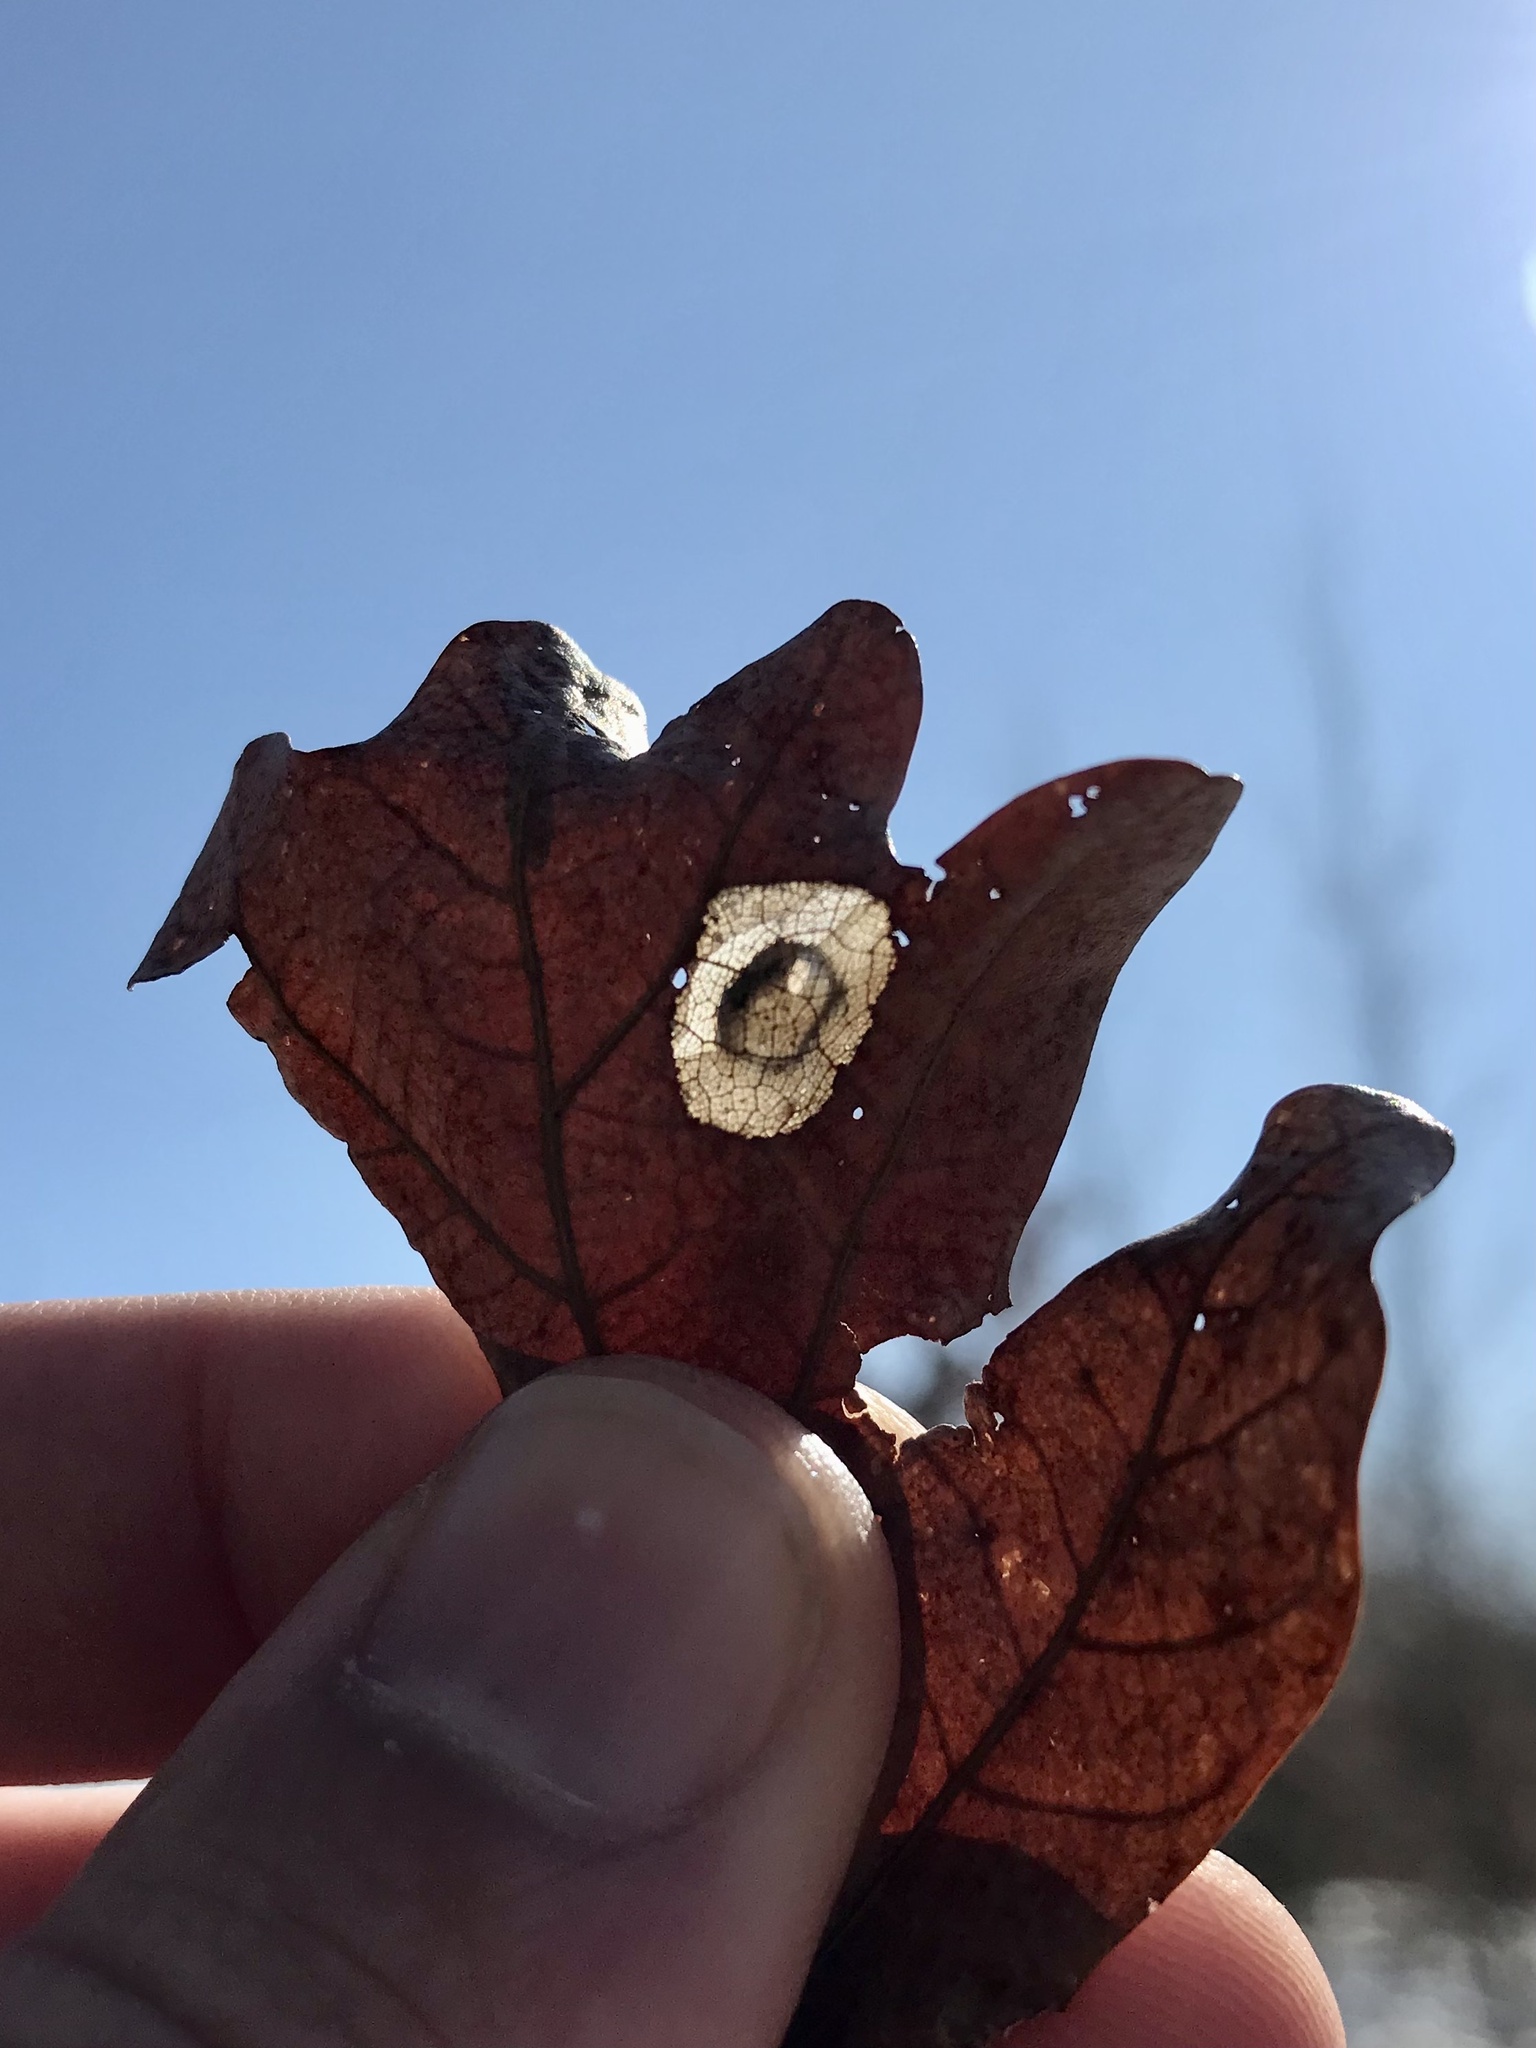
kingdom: Animalia
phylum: Arthropoda
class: Insecta
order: Lepidoptera
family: Gracillariidae
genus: Phyllonorycter
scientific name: Phyllonorycter basistrigella
